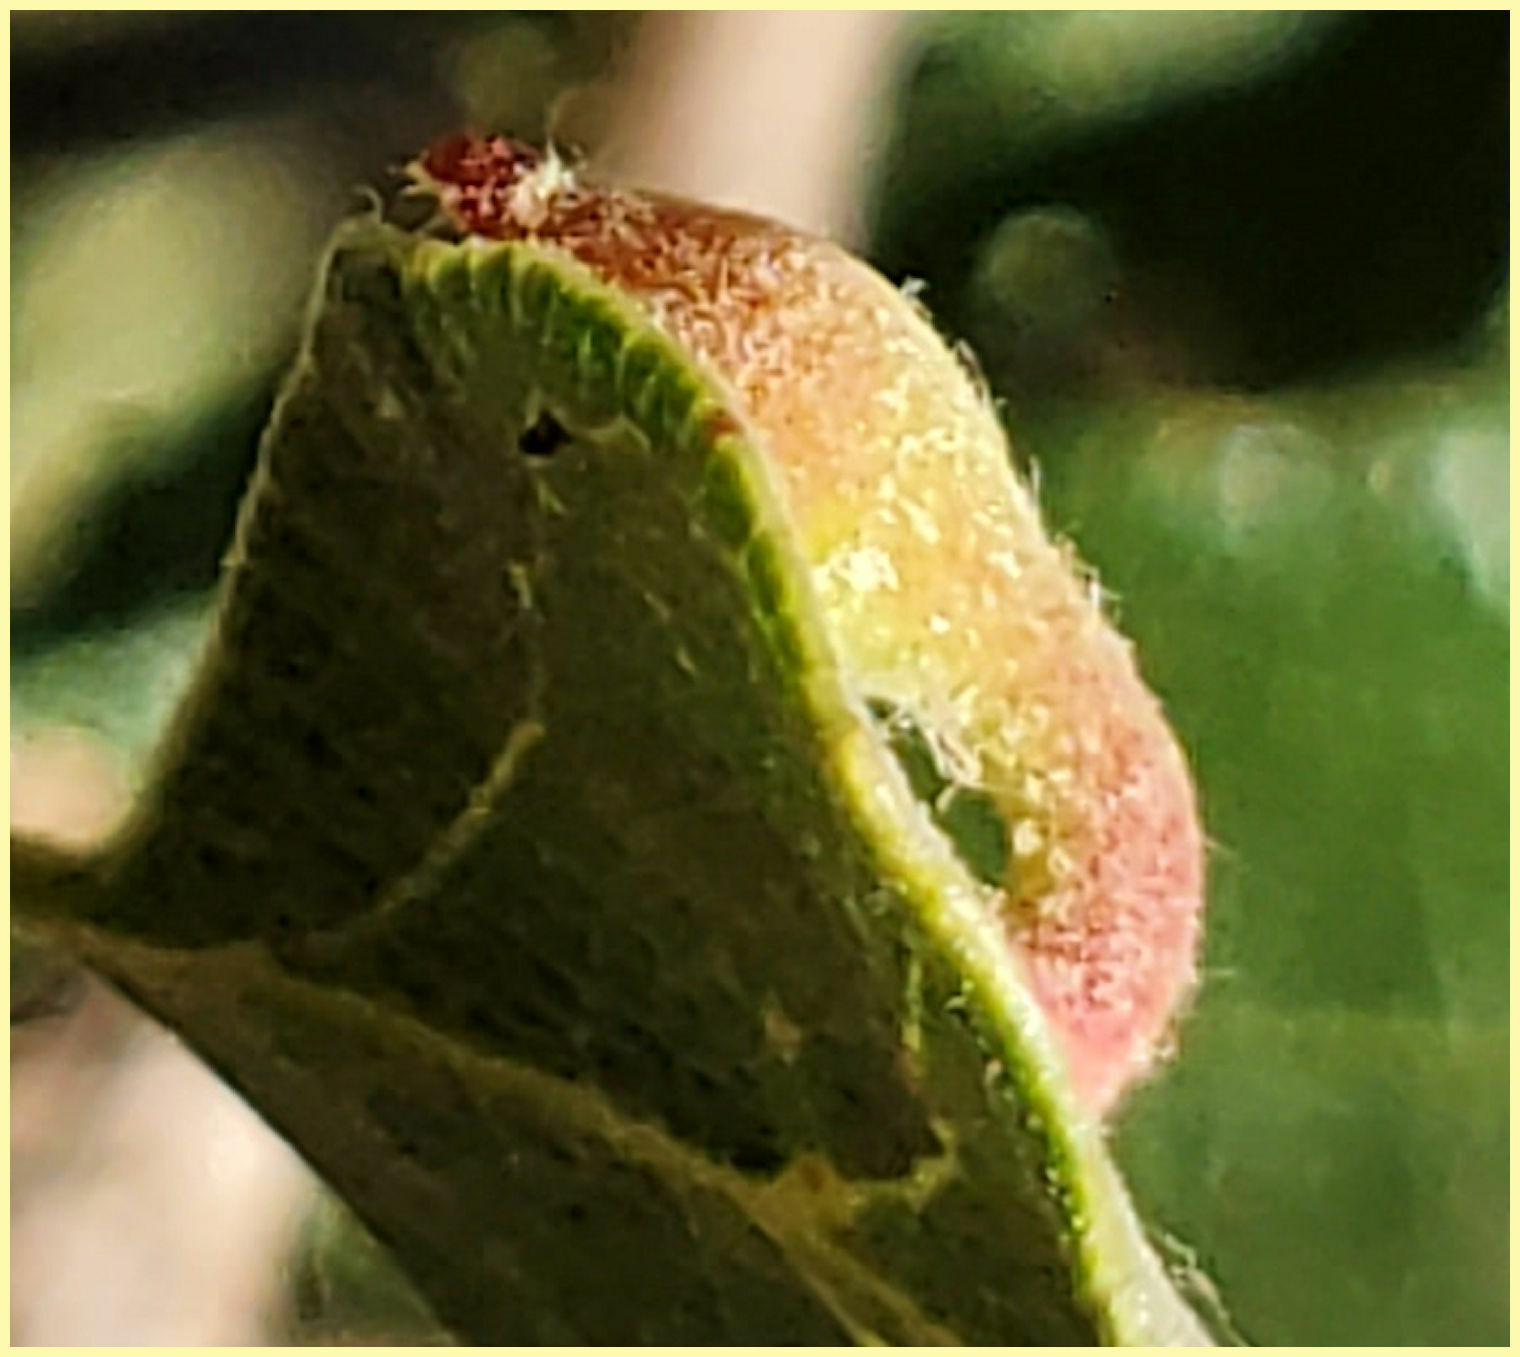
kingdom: Animalia
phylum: Arthropoda
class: Insecta
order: Hymenoptera
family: Cynipidae
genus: Atrusca
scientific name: Atrusca
